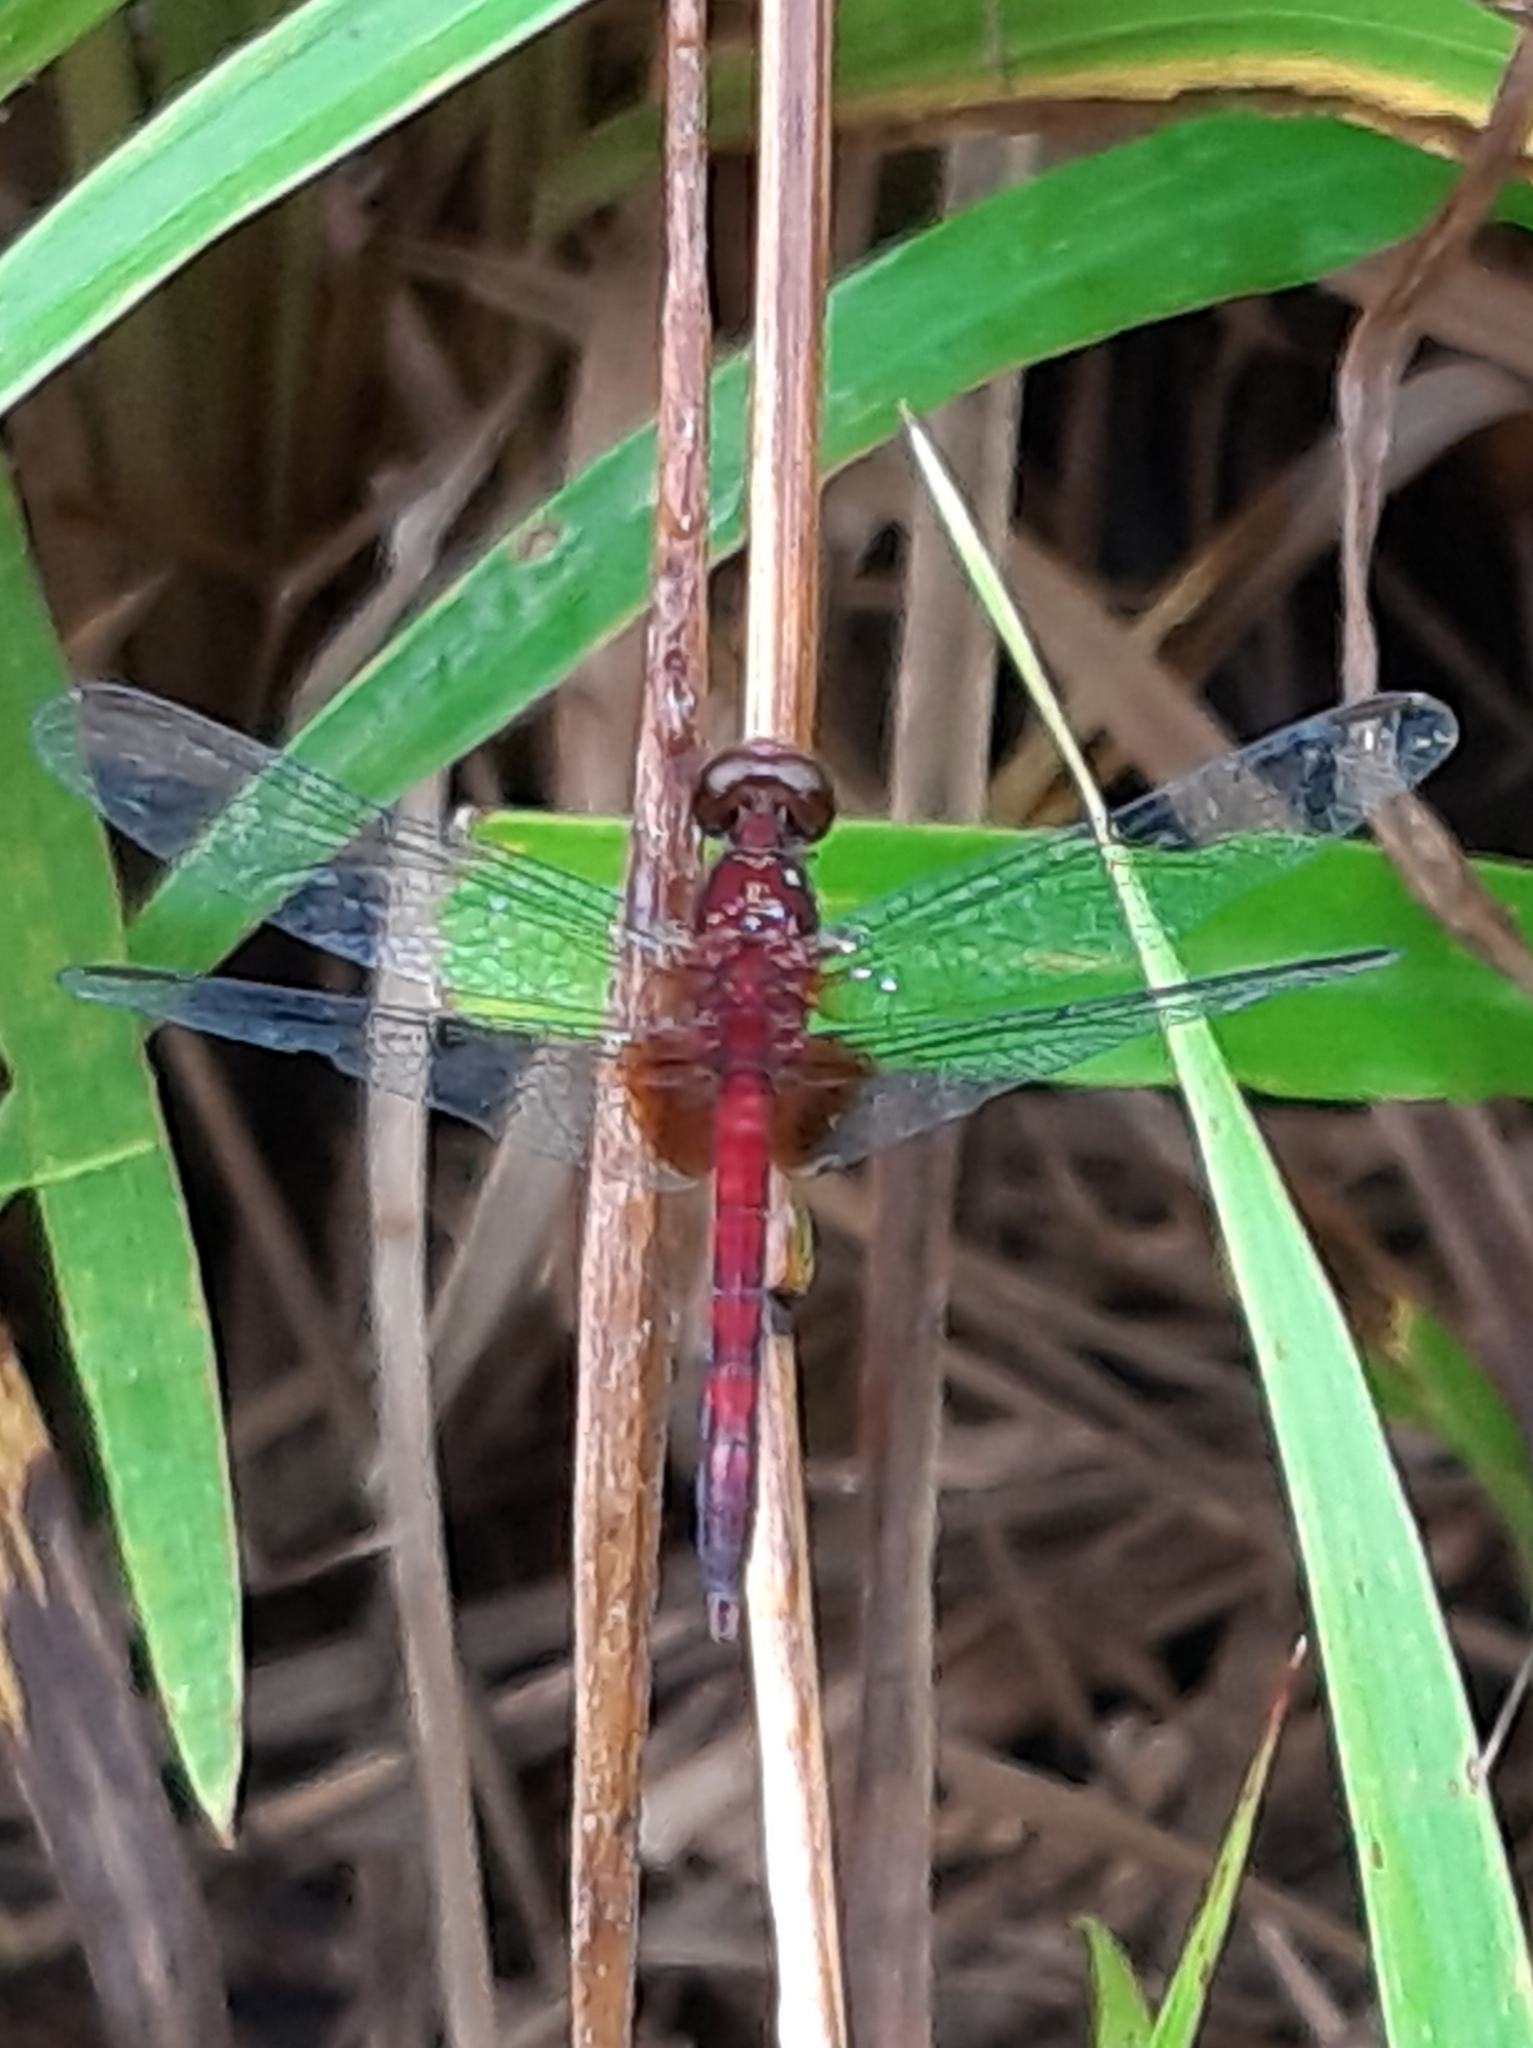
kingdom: Animalia
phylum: Arthropoda
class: Insecta
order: Odonata
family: Libellulidae
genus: Erythrodiplax
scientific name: Erythrodiplax fusca
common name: Red-faced dragonlet
